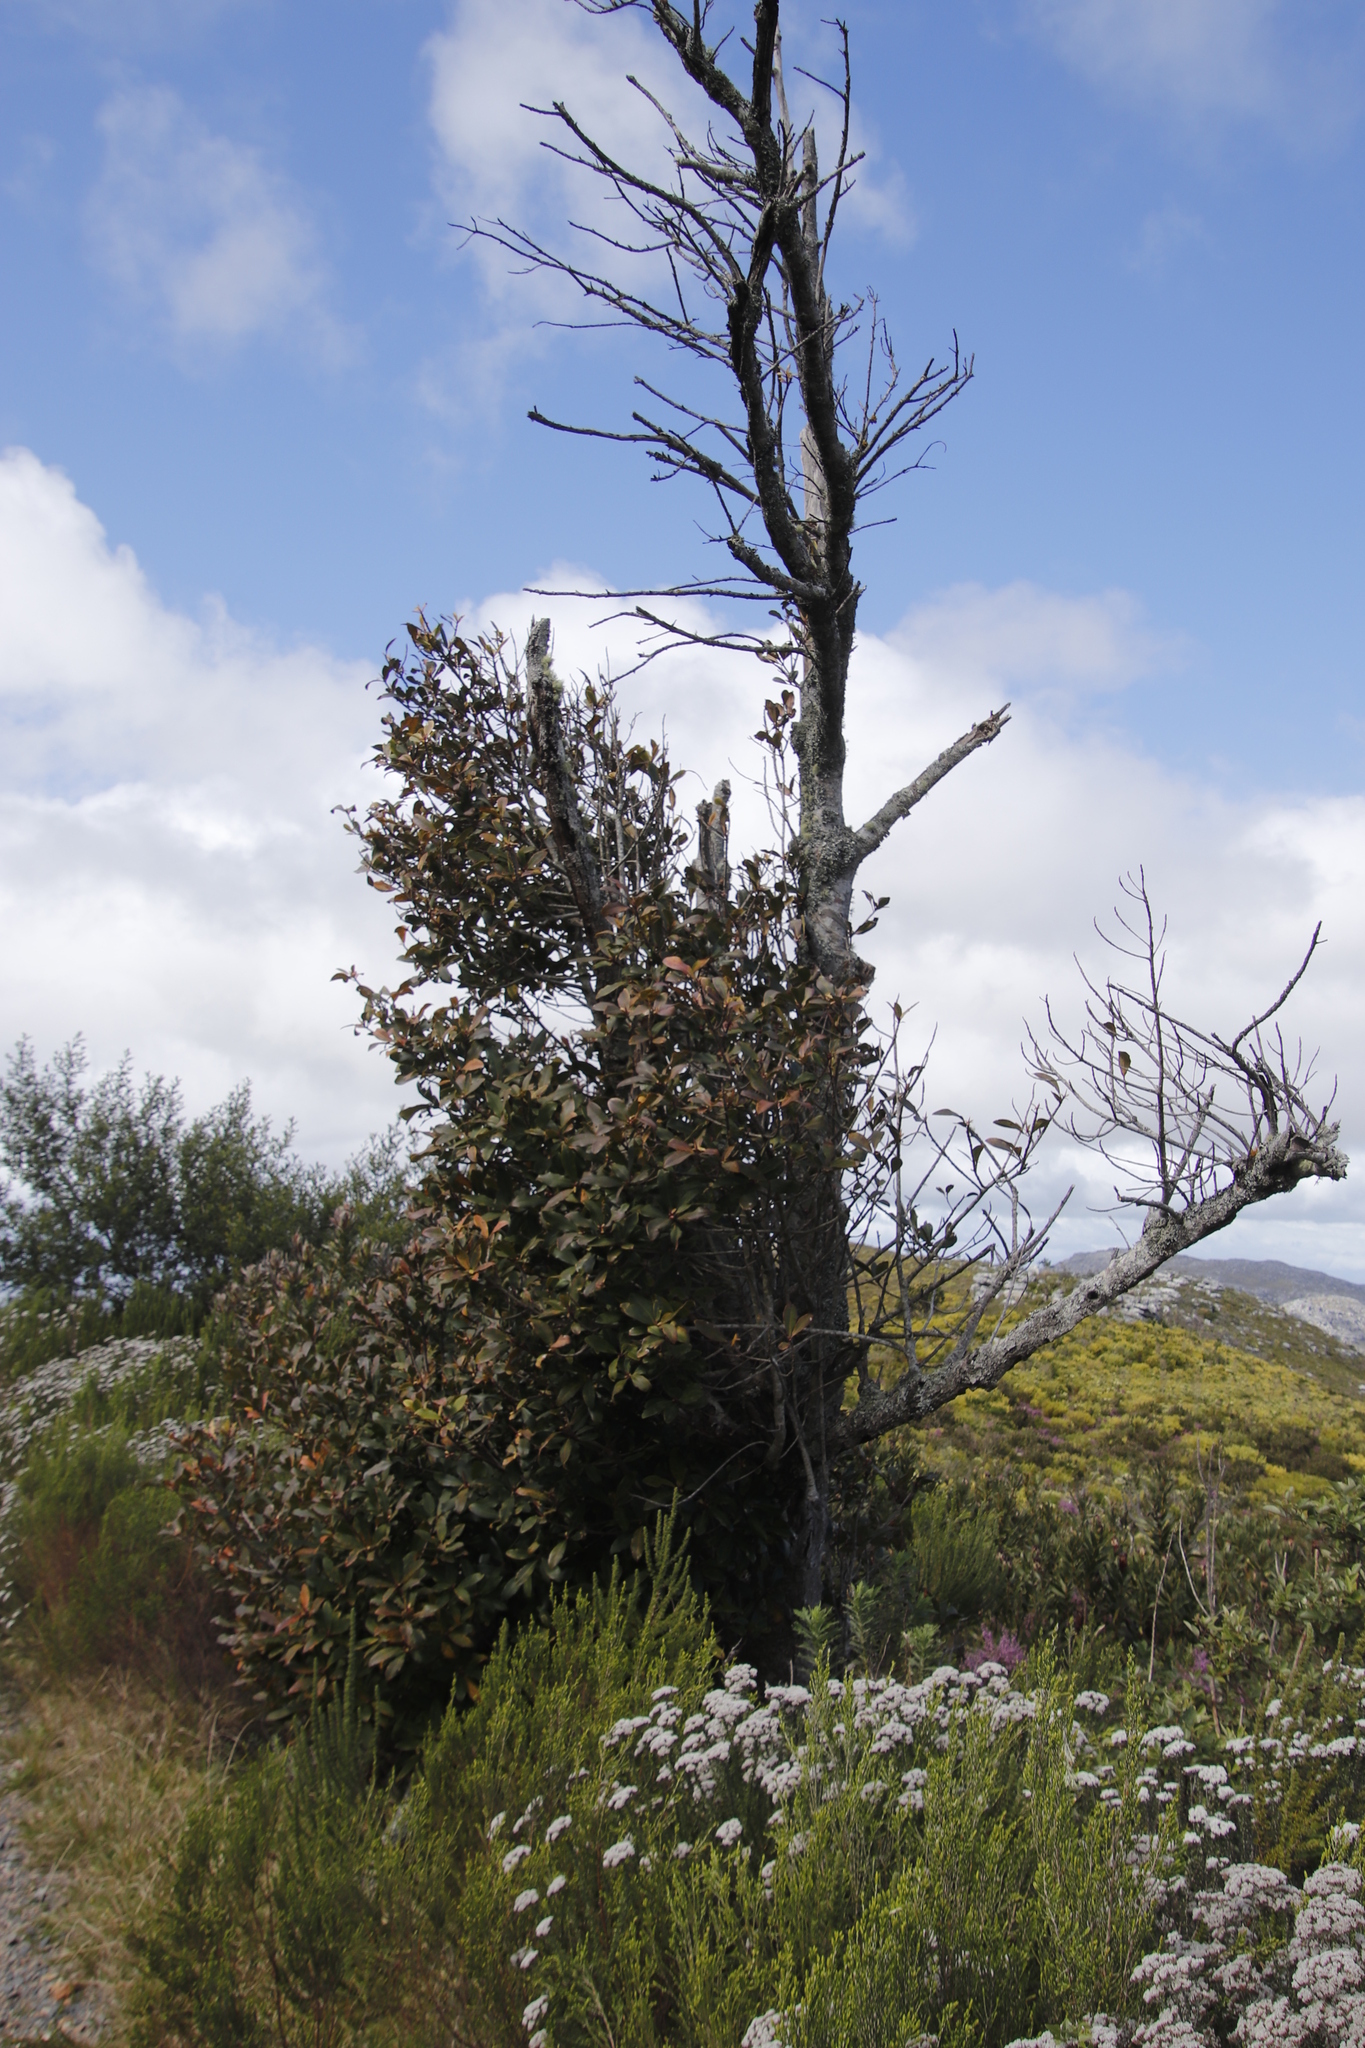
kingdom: Plantae
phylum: Tracheophyta
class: Magnoliopsida
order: Ericales
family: Primulaceae
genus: Myrsine
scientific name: Myrsine melanophloeos
